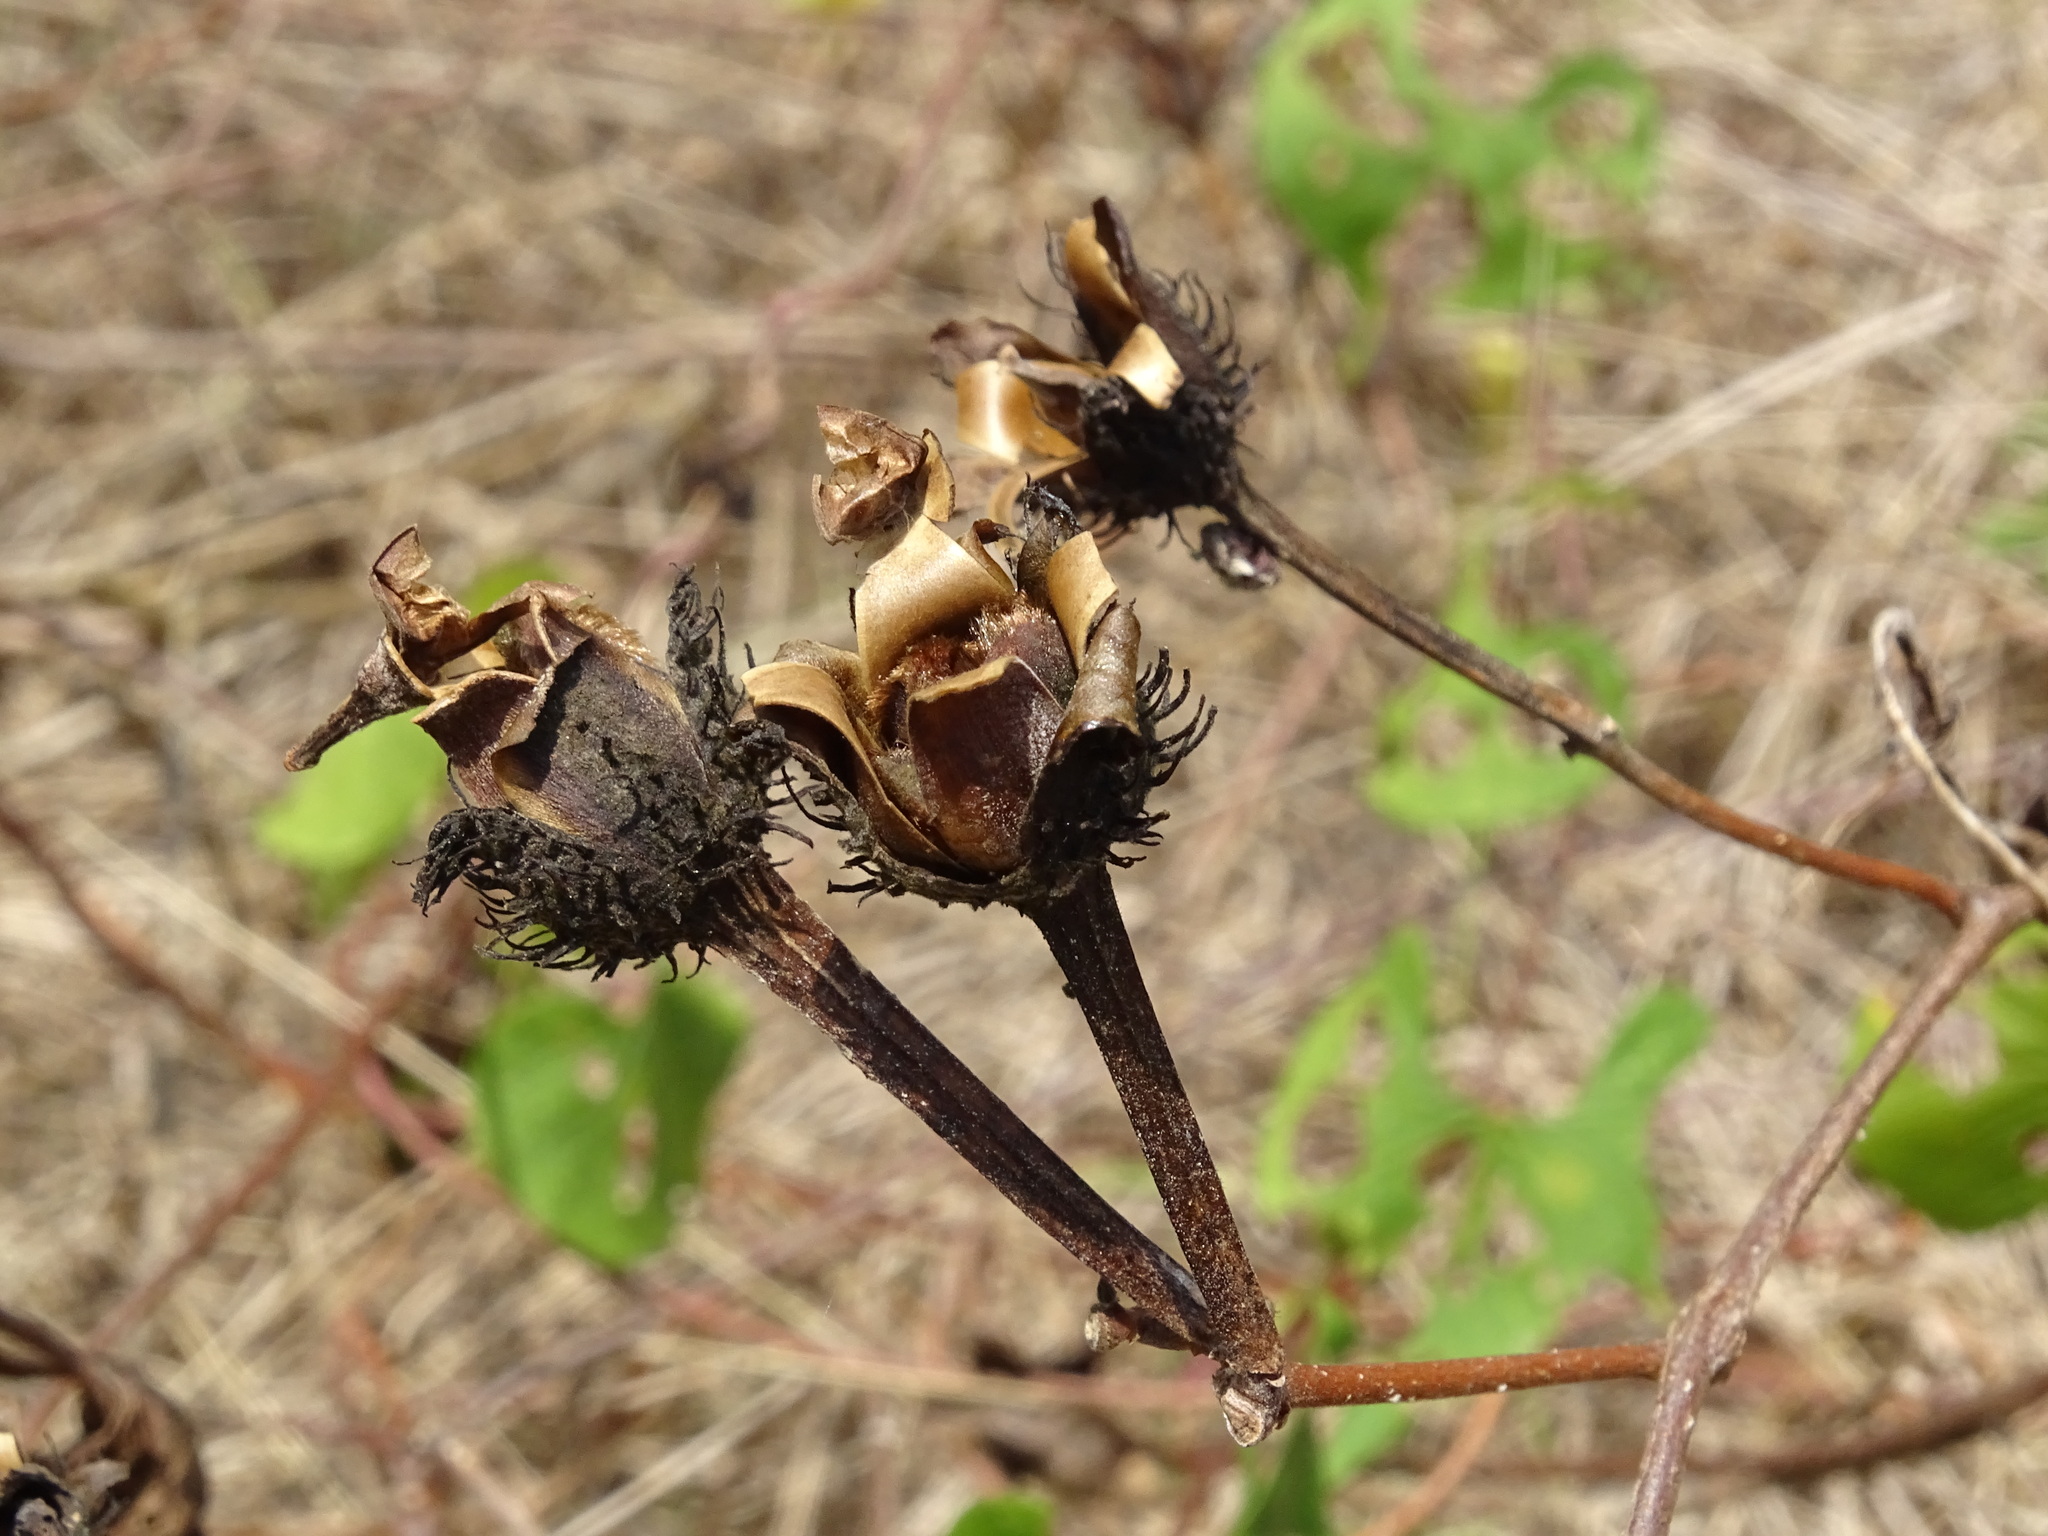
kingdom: Plantae
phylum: Tracheophyta
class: Magnoliopsida
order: Solanales
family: Convolvulaceae
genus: Ipomoea
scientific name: Ipomoea crinicalyx
